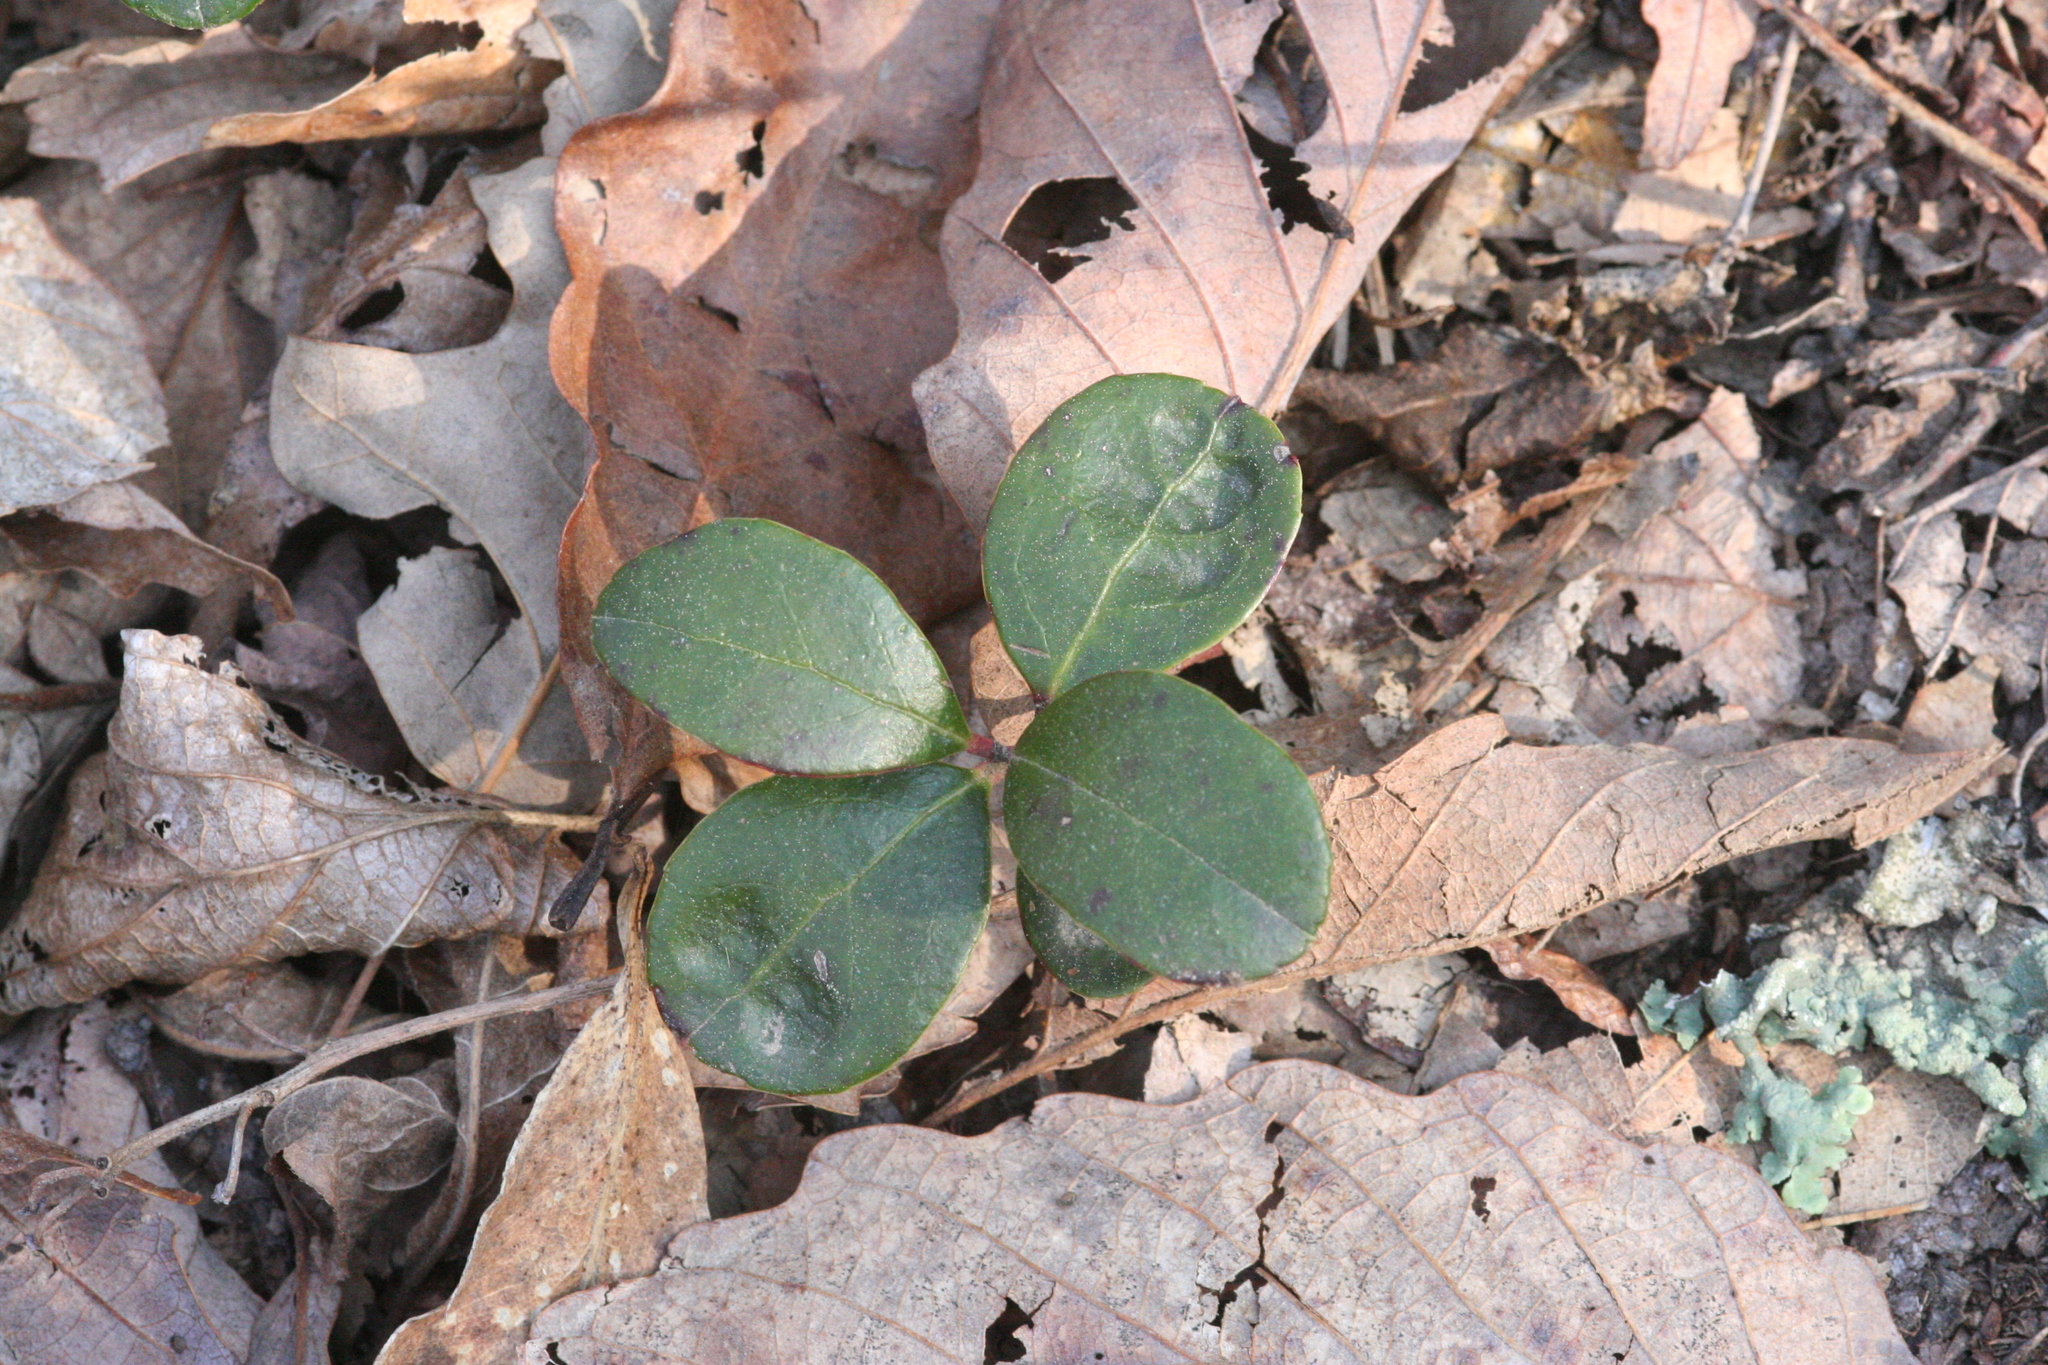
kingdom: Plantae
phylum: Tracheophyta
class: Magnoliopsida
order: Ericales
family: Ericaceae
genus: Gaultheria
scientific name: Gaultheria procumbens
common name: Checkerberry
